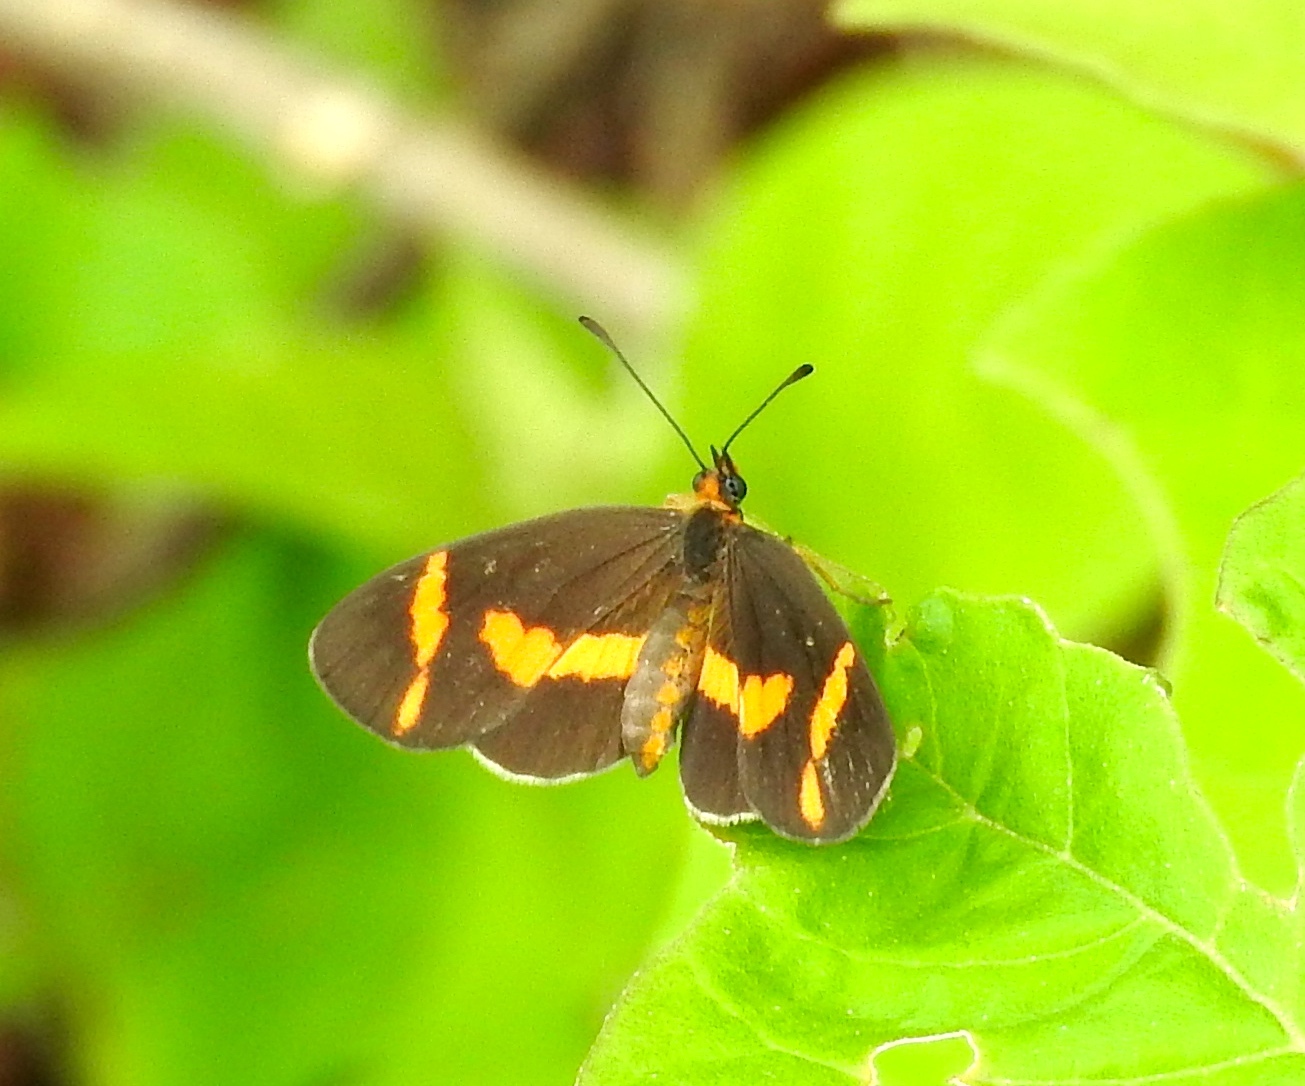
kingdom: Animalia
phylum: Arthropoda
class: Insecta
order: Lepidoptera
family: Nymphalidae
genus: Microtia
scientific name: Microtia elva
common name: Elf
